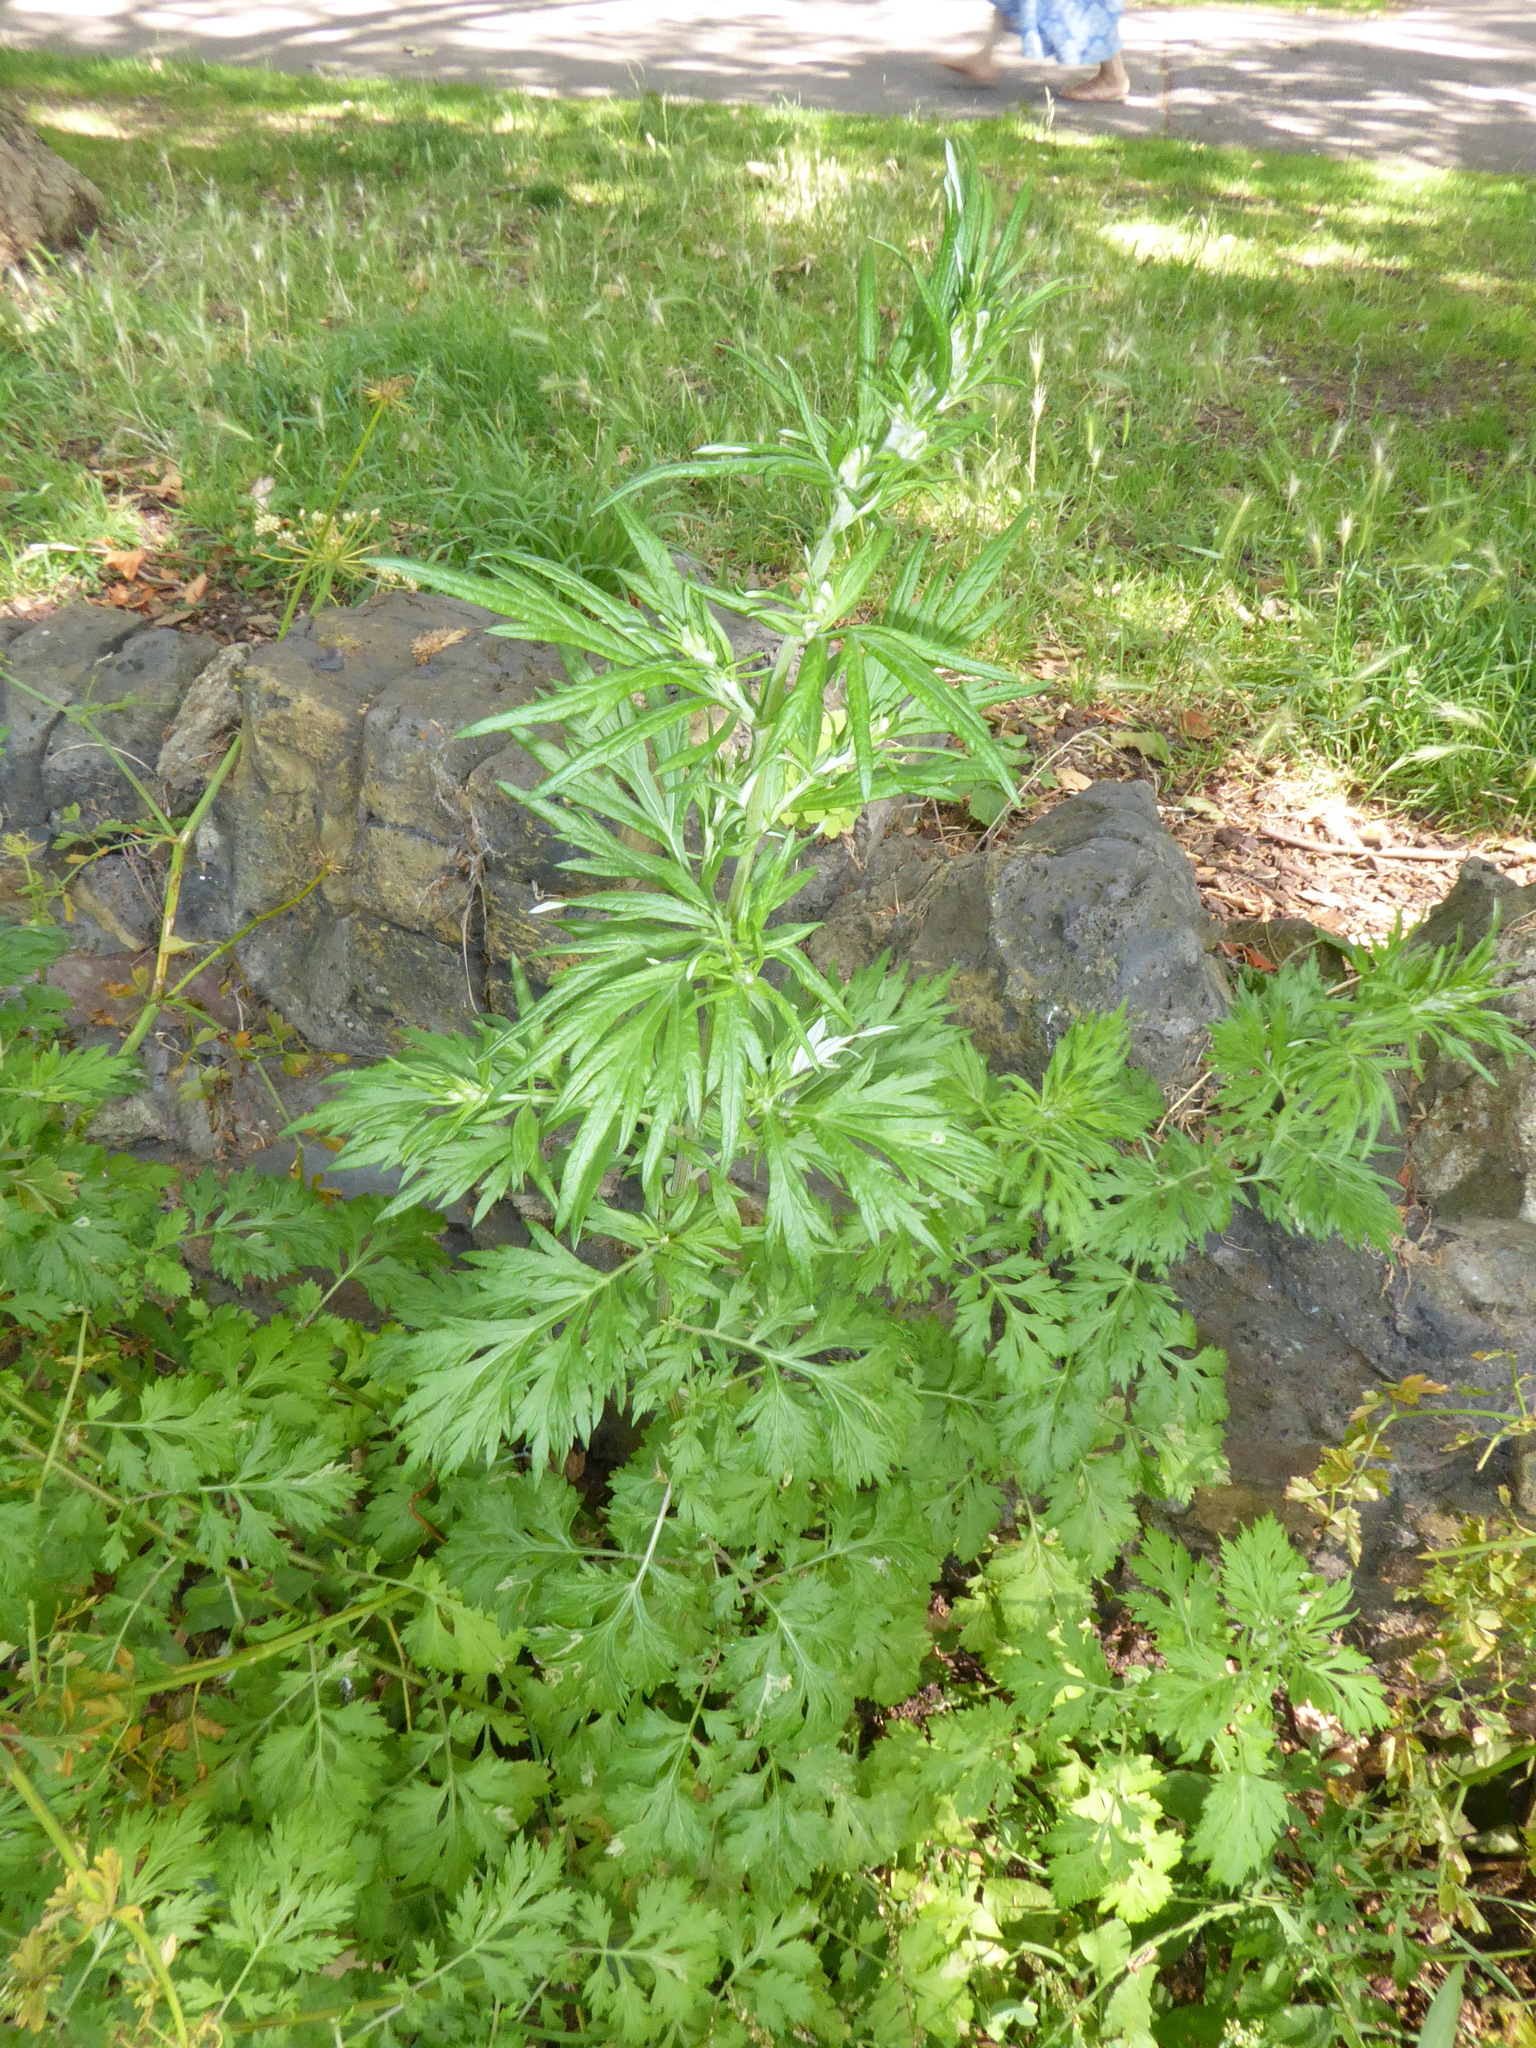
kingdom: Plantae
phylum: Tracheophyta
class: Magnoliopsida
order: Asterales
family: Asteraceae
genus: Artemisia
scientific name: Artemisia vulgaris
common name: Mugwort
